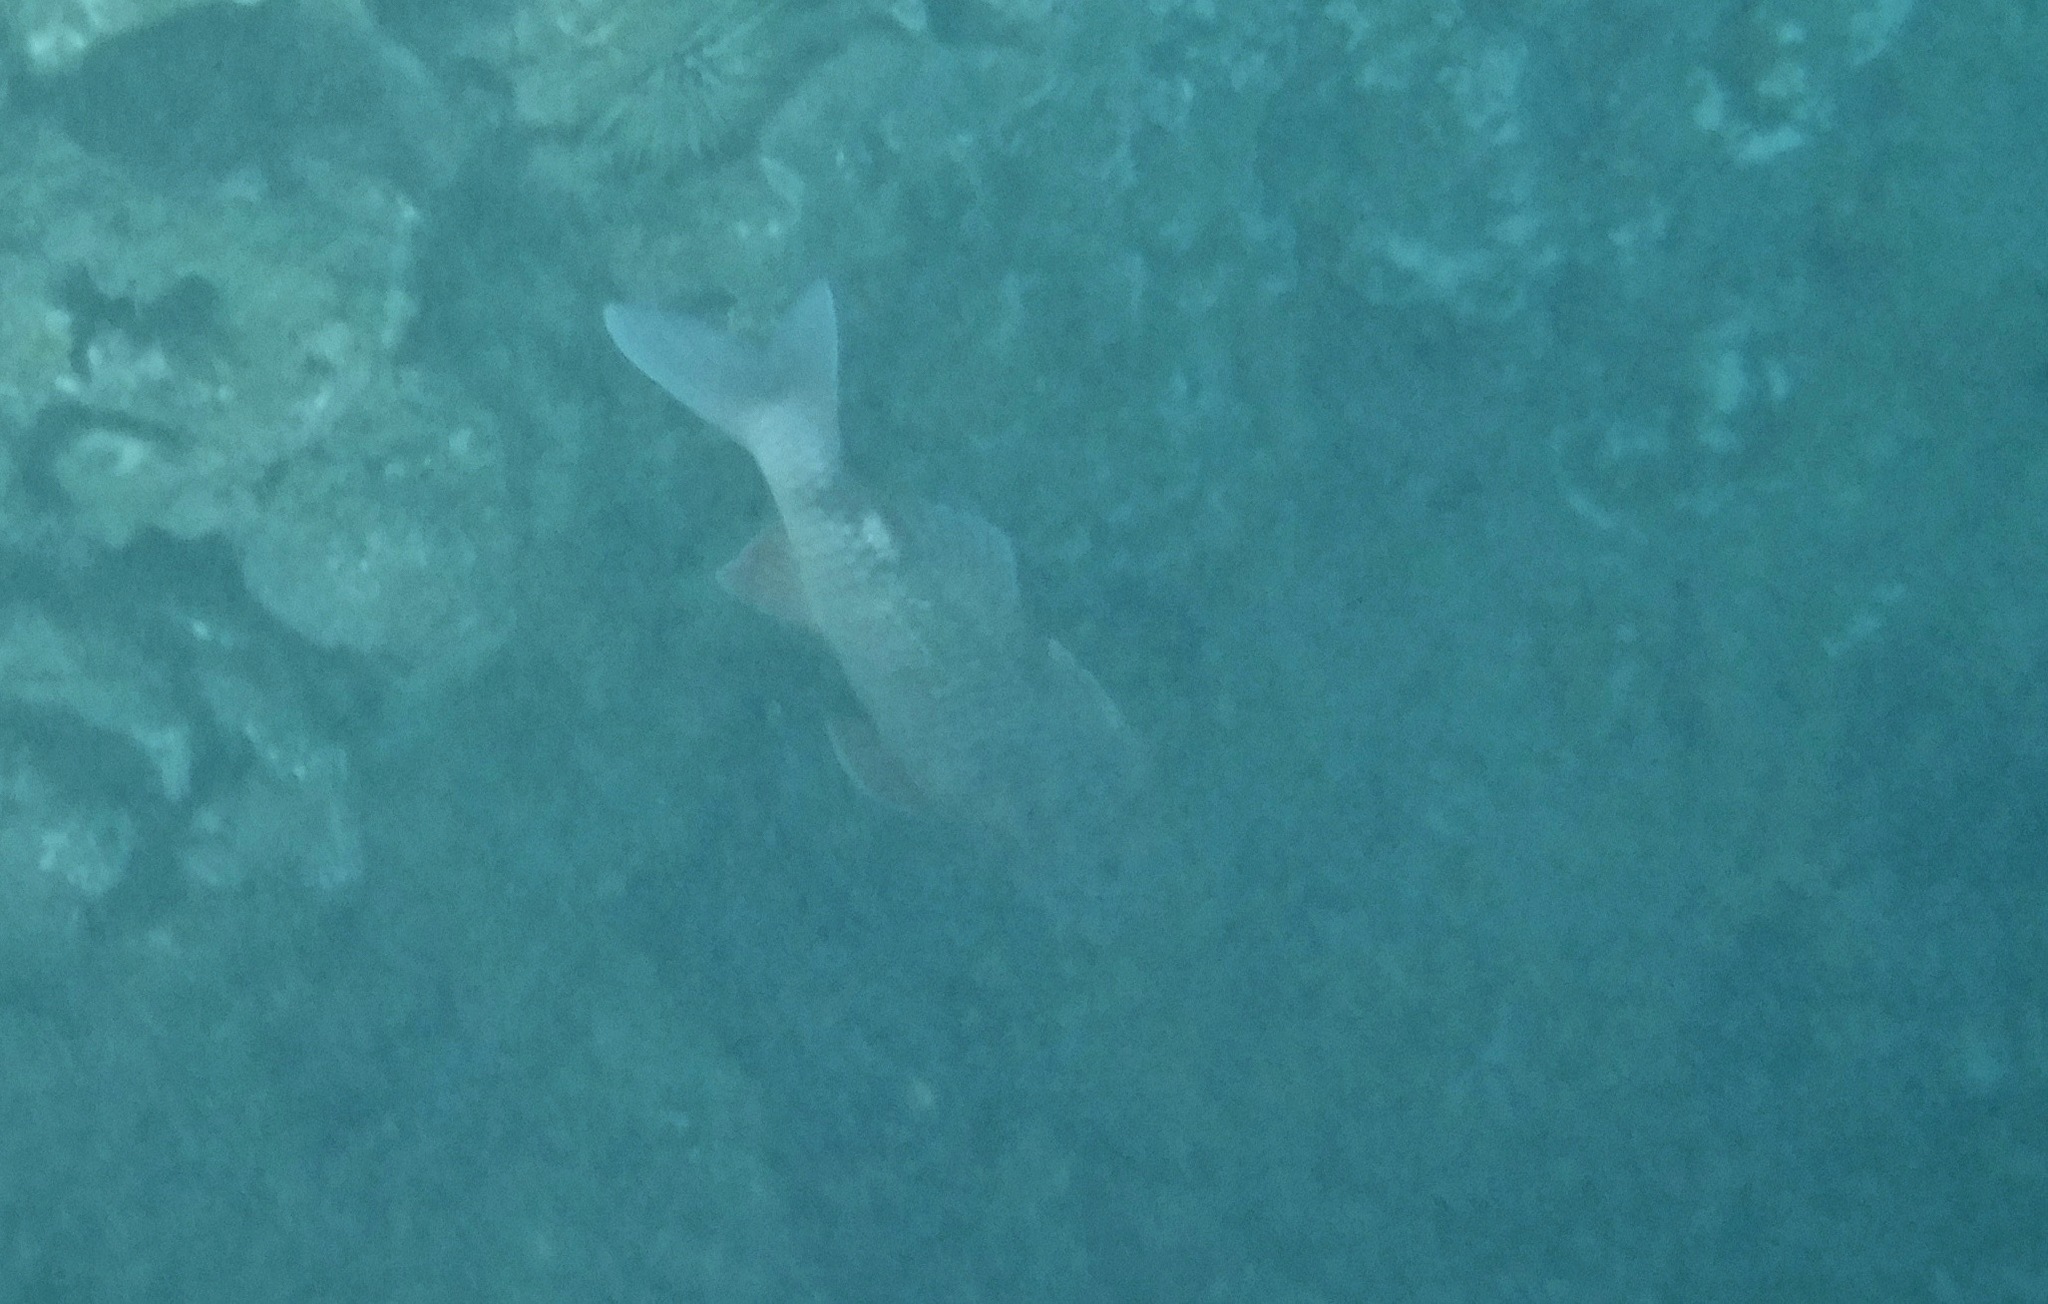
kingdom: Animalia
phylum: Chordata
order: Perciformes
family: Mullidae
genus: Parupeneus
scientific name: Parupeneus porphyreus
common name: Whitesaddle goatfish
